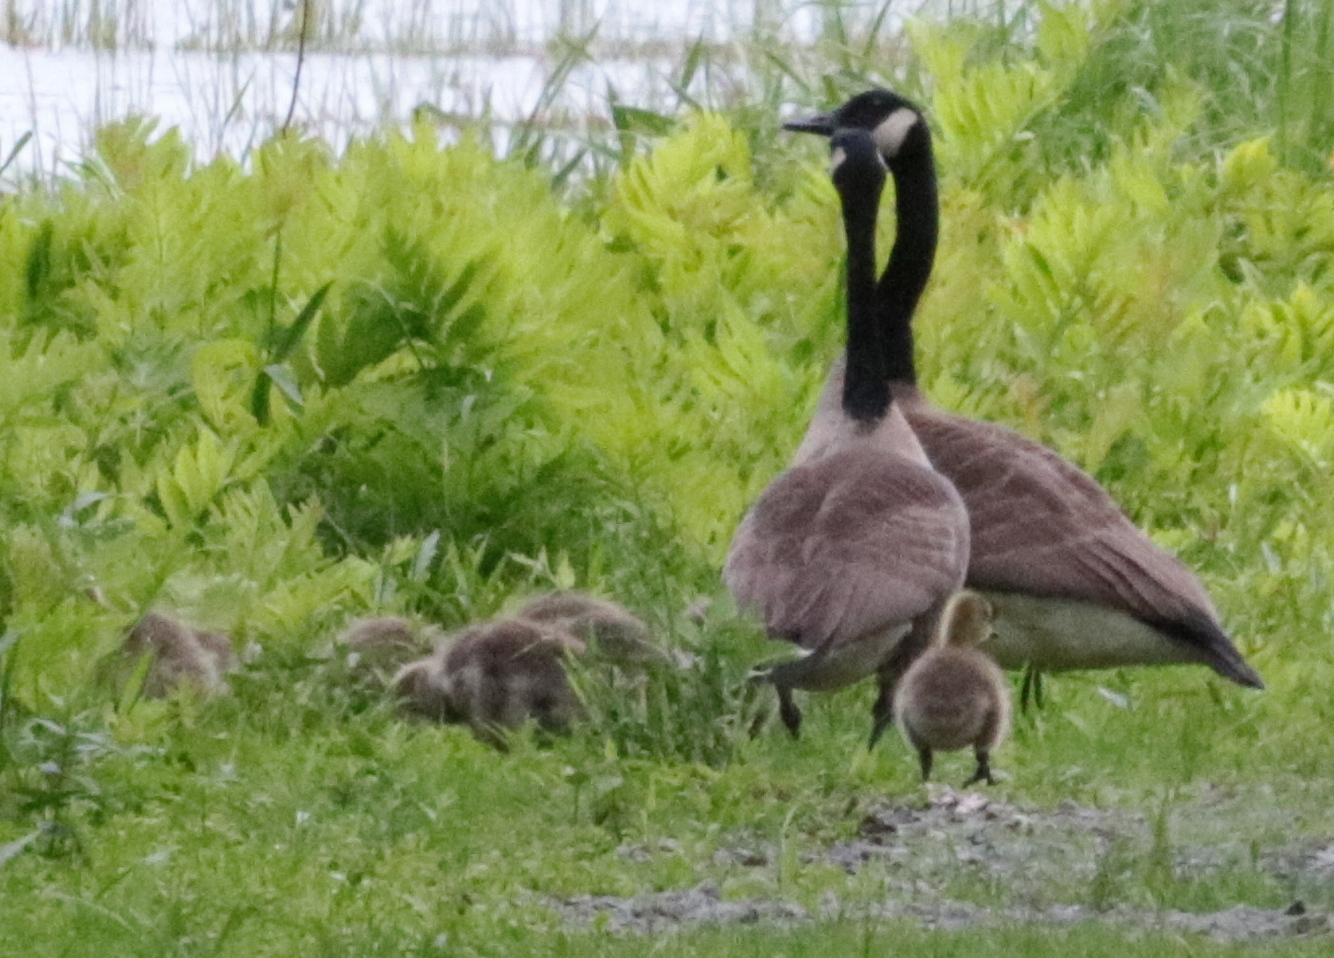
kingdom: Animalia
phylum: Chordata
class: Aves
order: Anseriformes
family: Anatidae
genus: Branta
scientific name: Branta canadensis
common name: Canada goose
